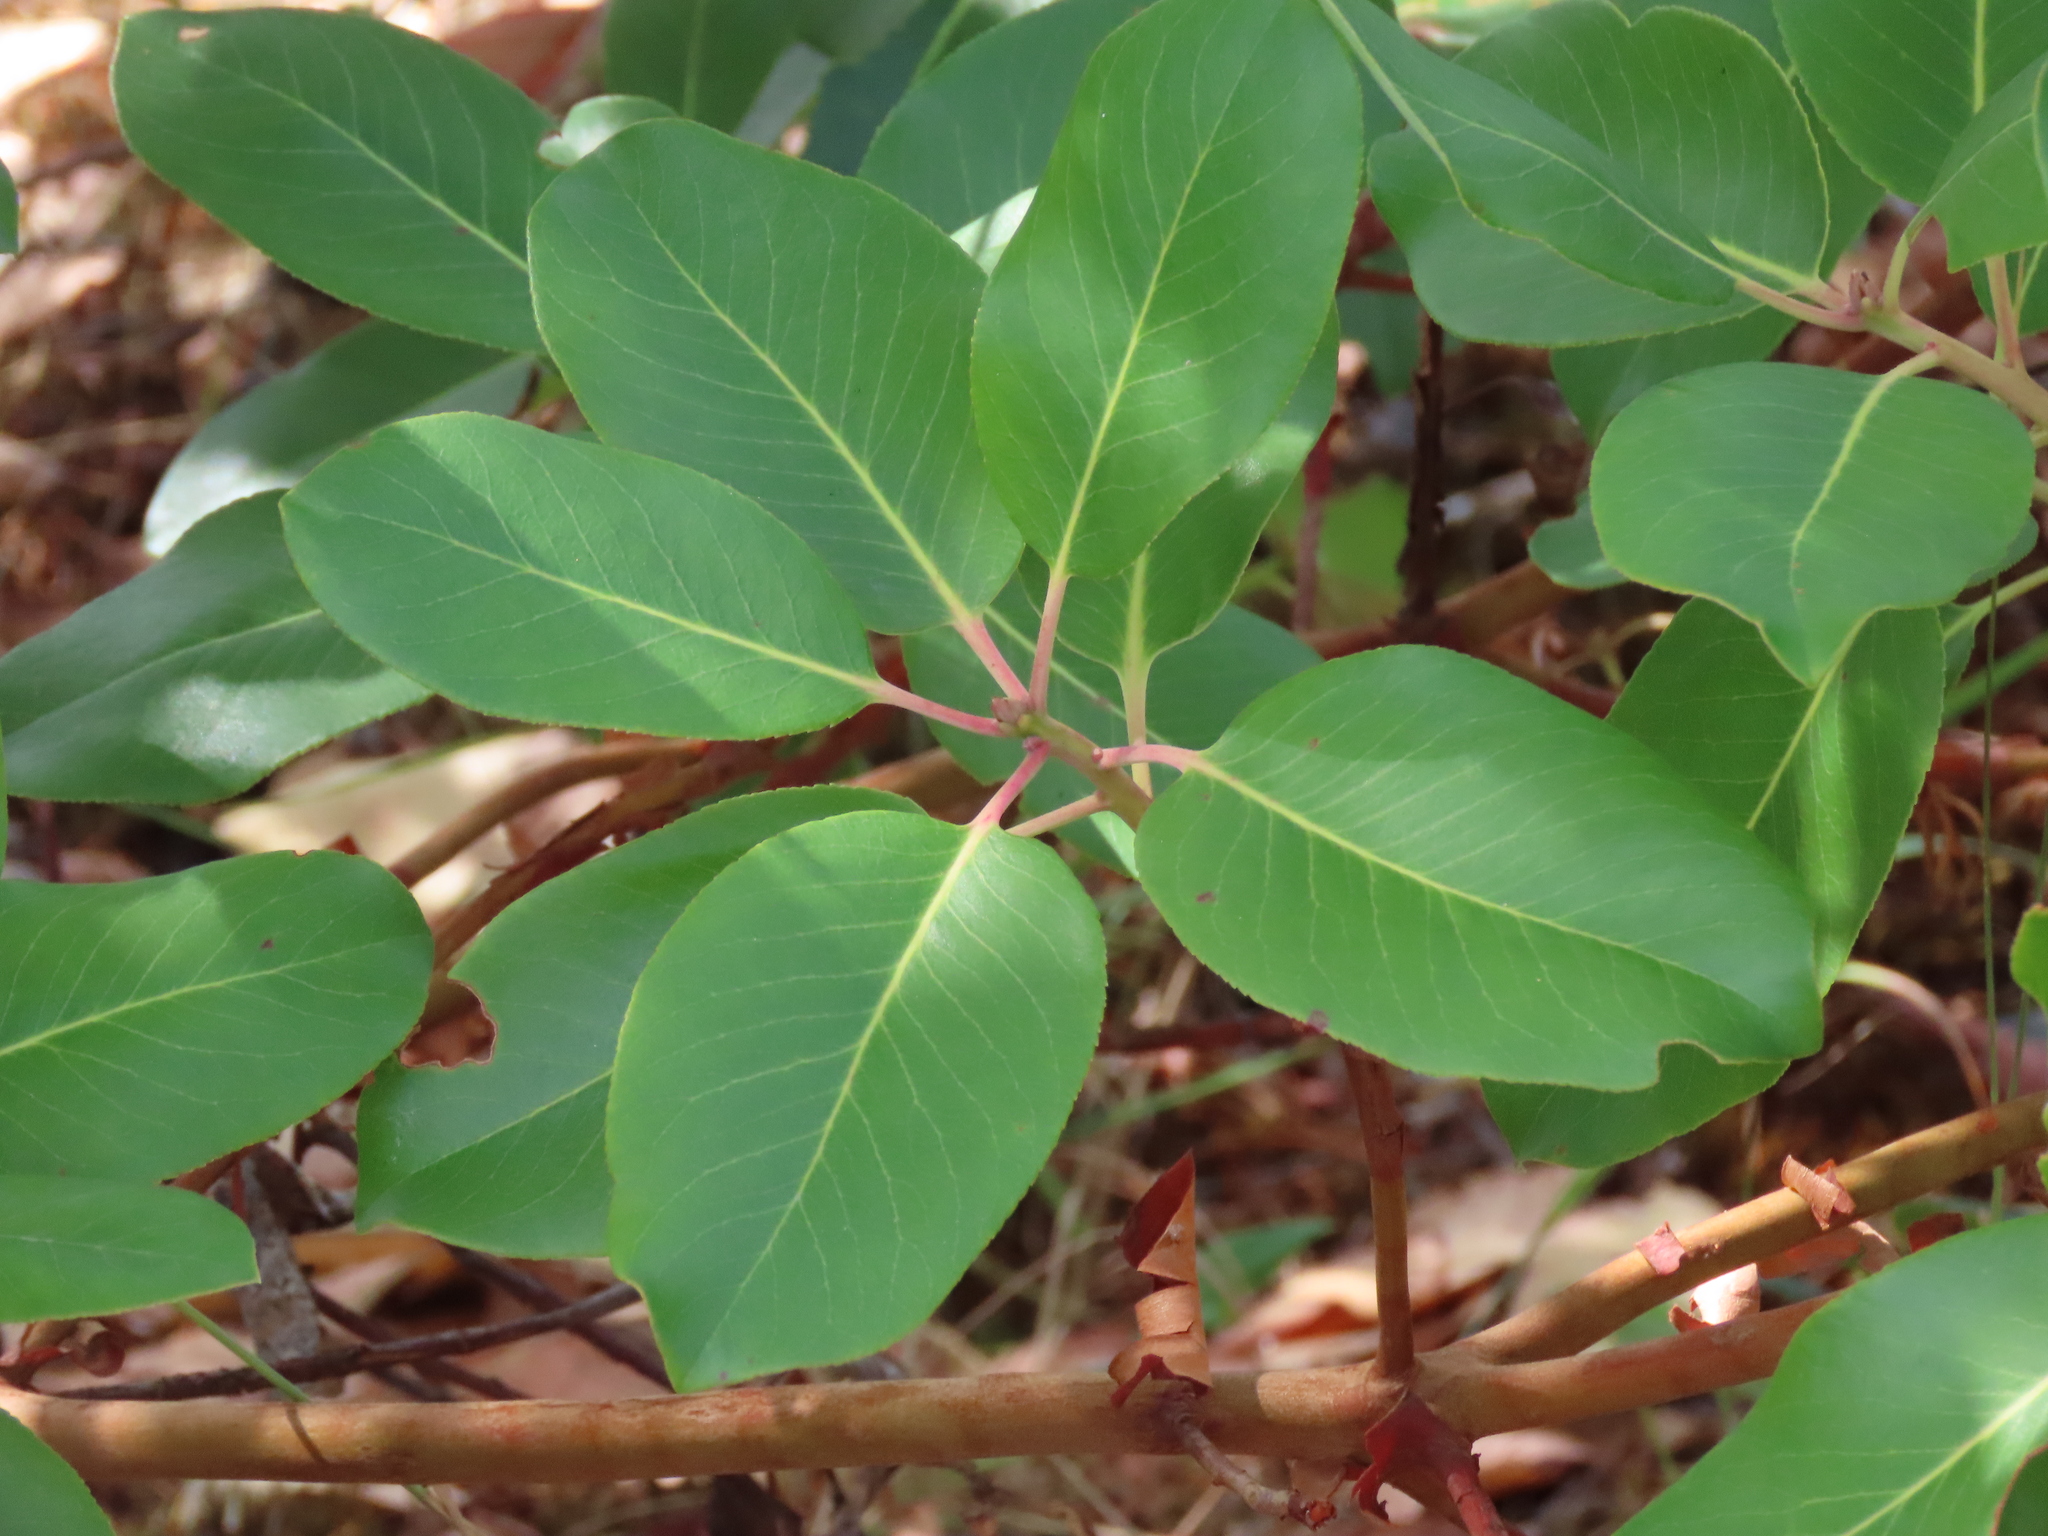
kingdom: Plantae
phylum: Tracheophyta
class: Magnoliopsida
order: Ericales
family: Ericaceae
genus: Arbutus
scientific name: Arbutus menziesii
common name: Pacific madrone
